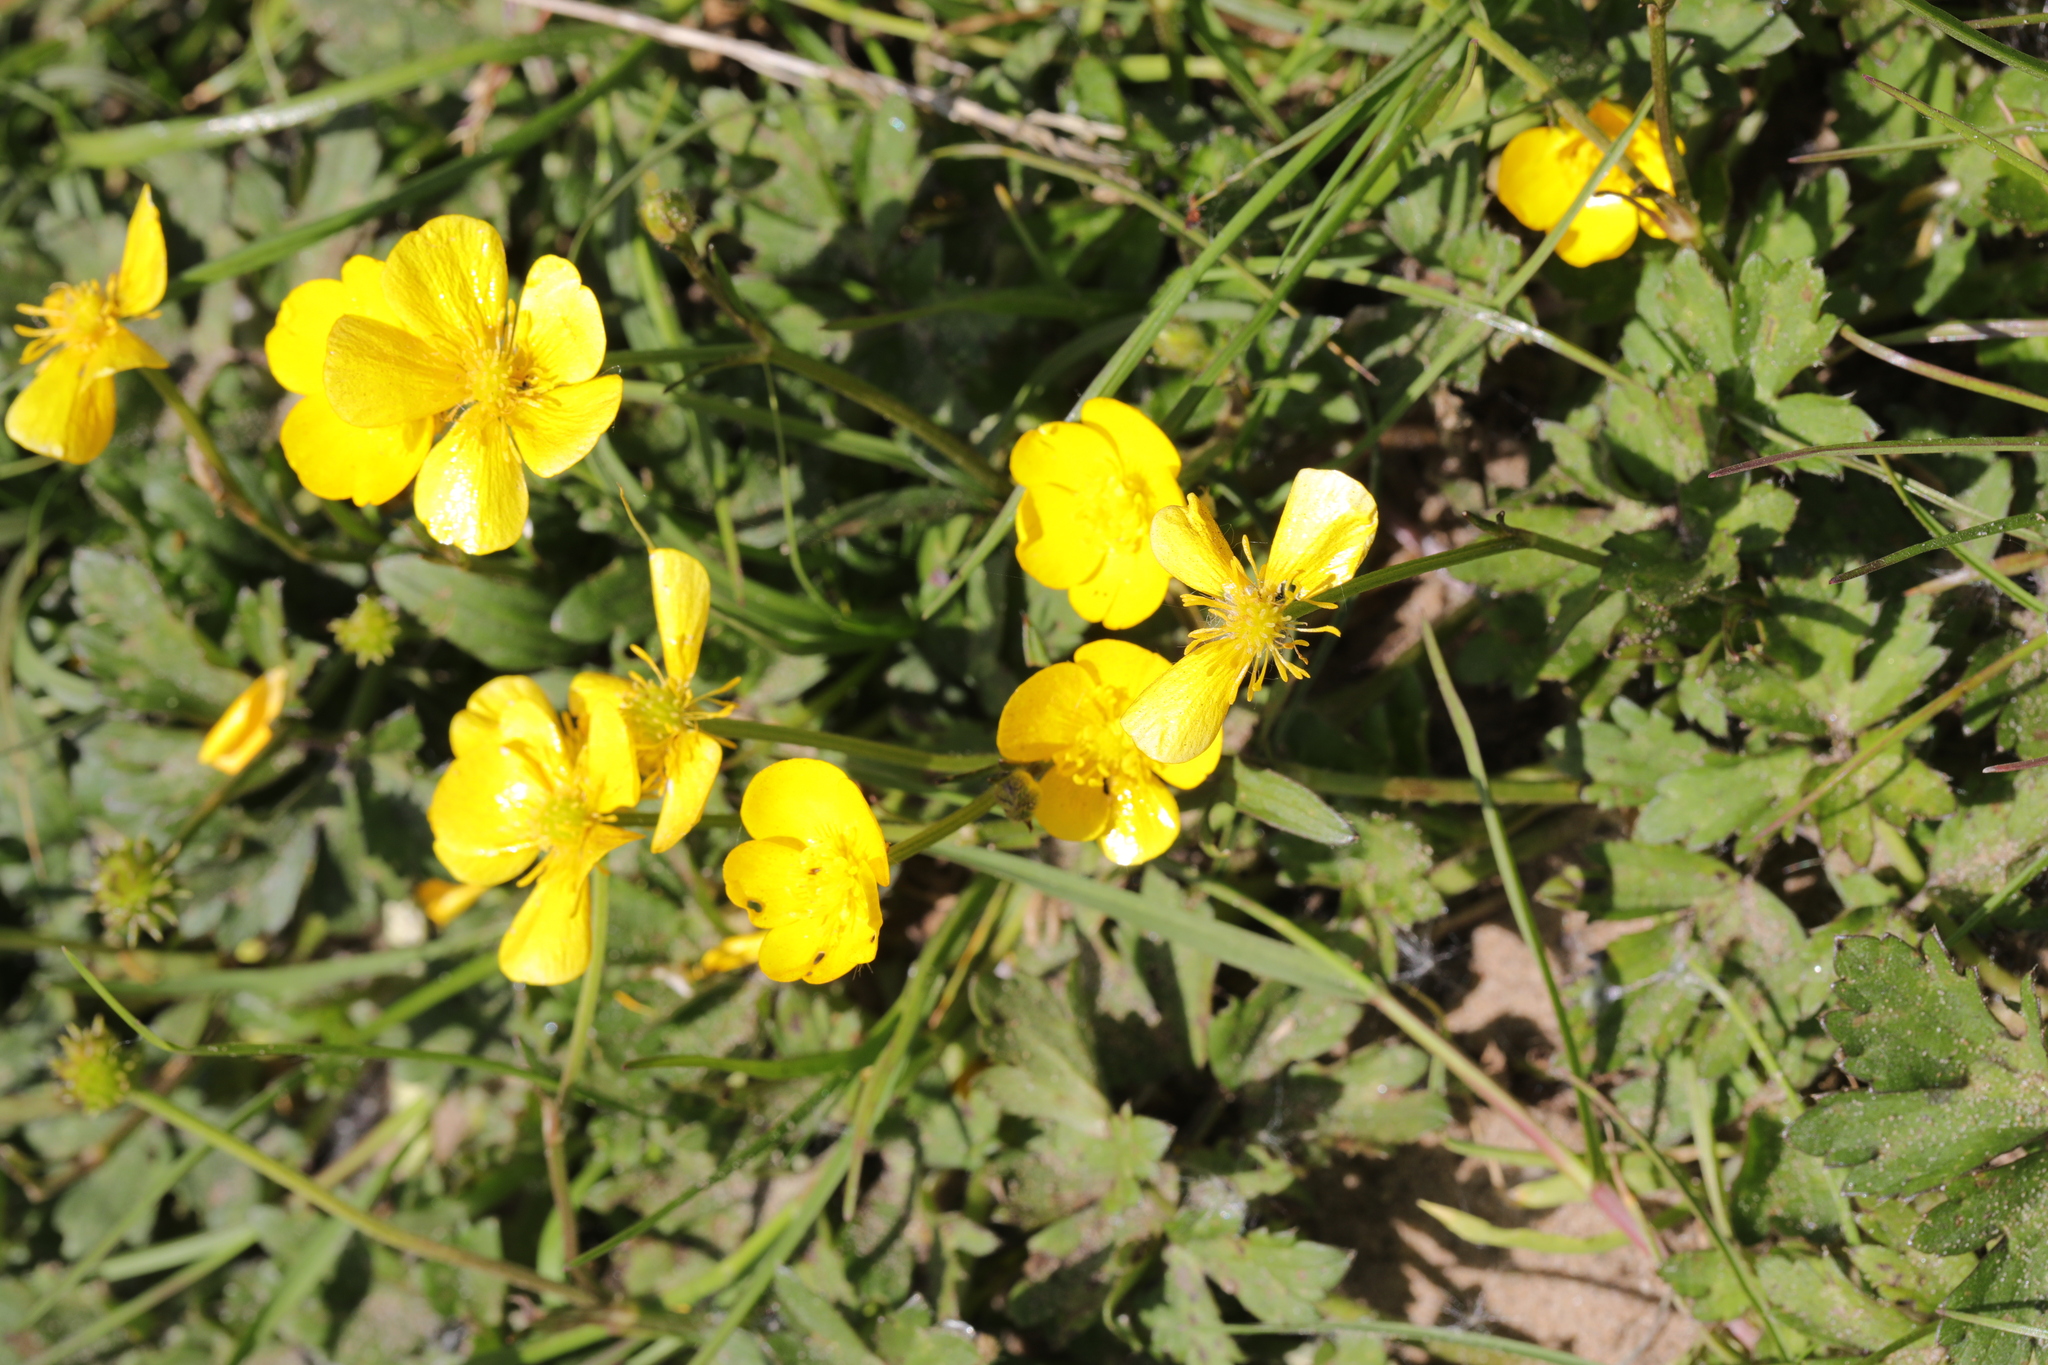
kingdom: Plantae
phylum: Tracheophyta
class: Magnoliopsida
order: Ranunculales
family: Ranunculaceae
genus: Ranunculus
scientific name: Ranunculus repens
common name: Creeping buttercup
